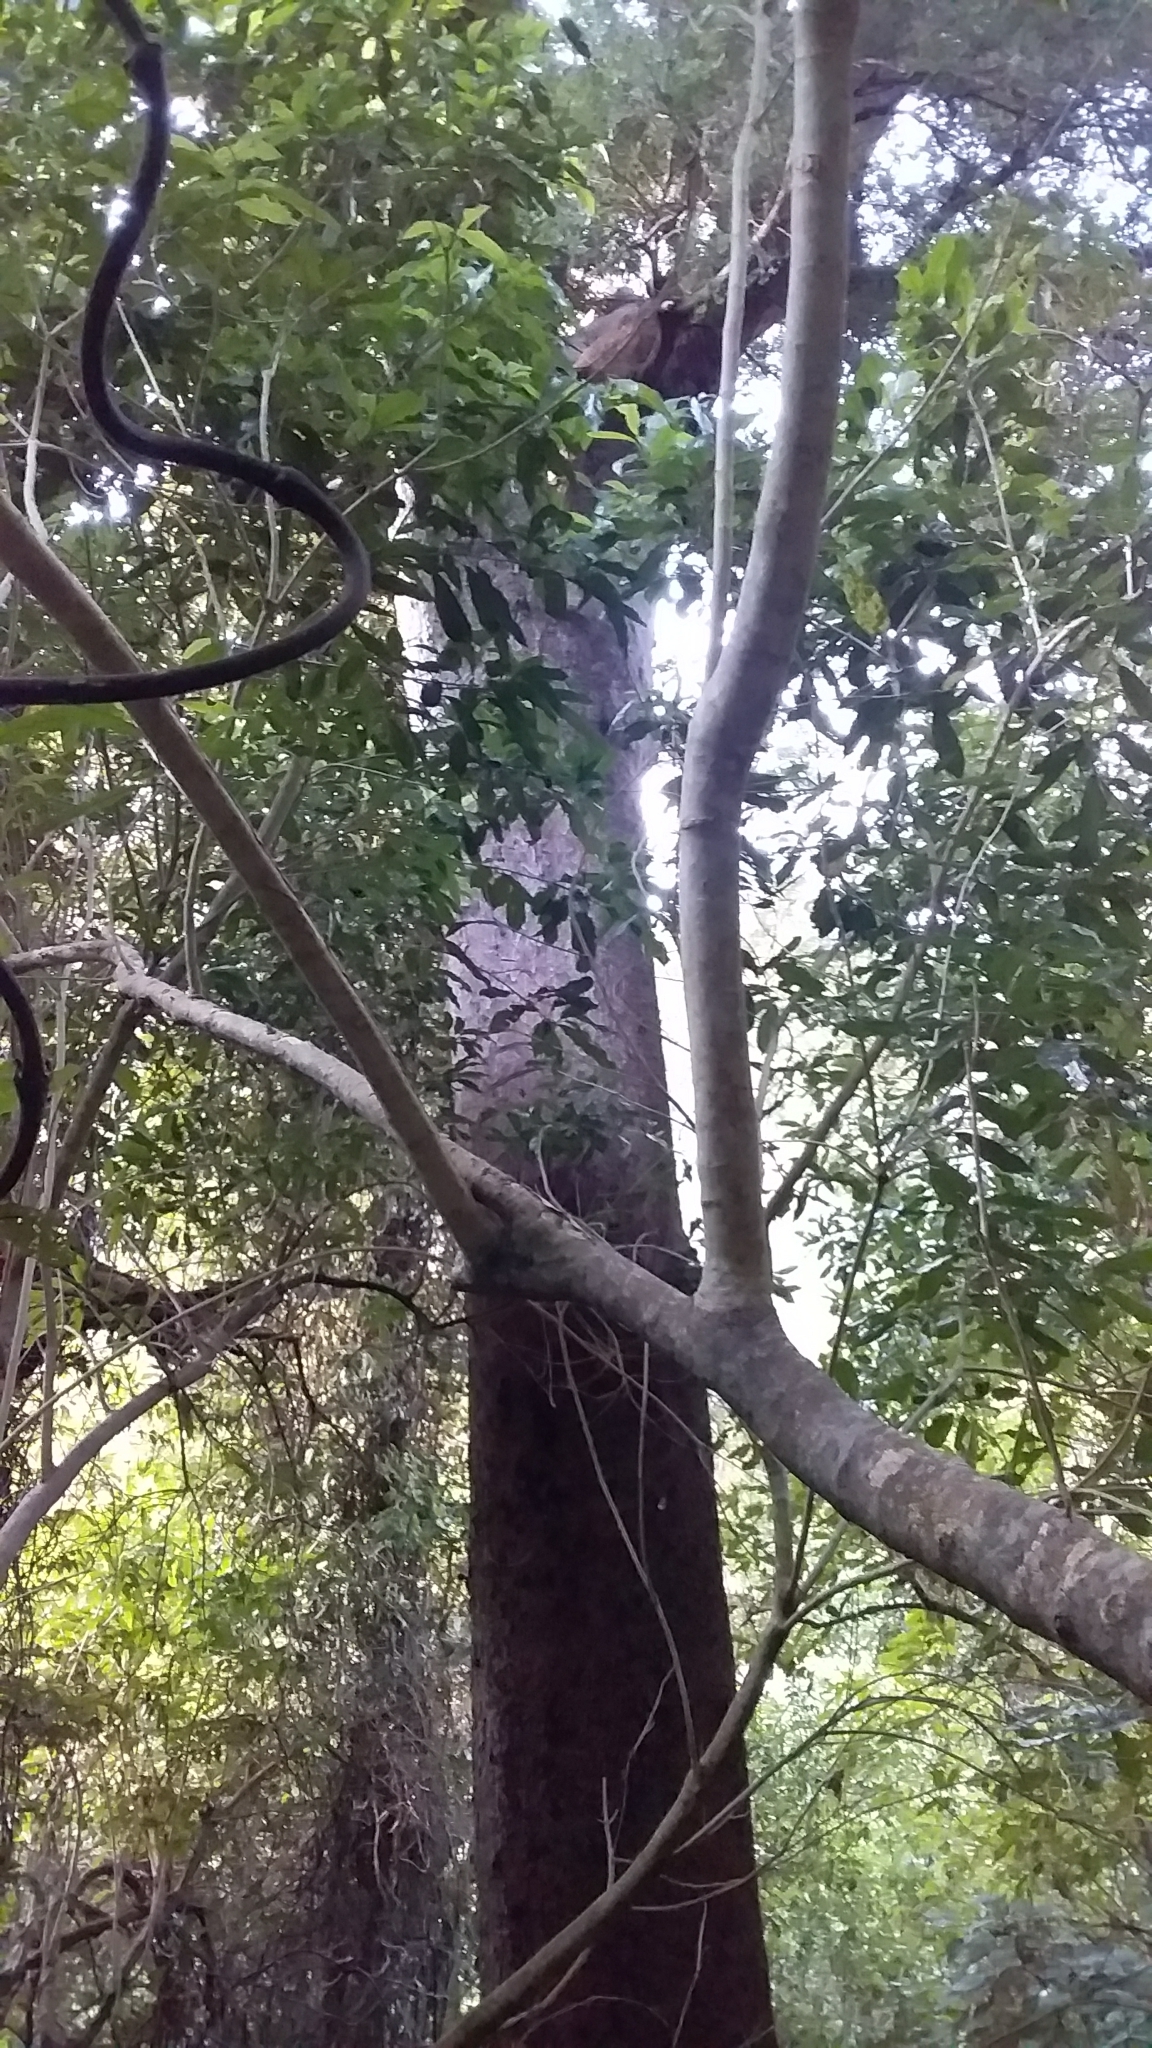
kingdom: Plantae
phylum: Tracheophyta
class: Pinopsida
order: Pinales
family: Podocarpaceae
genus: Prumnopitys
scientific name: Prumnopitys taxifolia
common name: Matai
